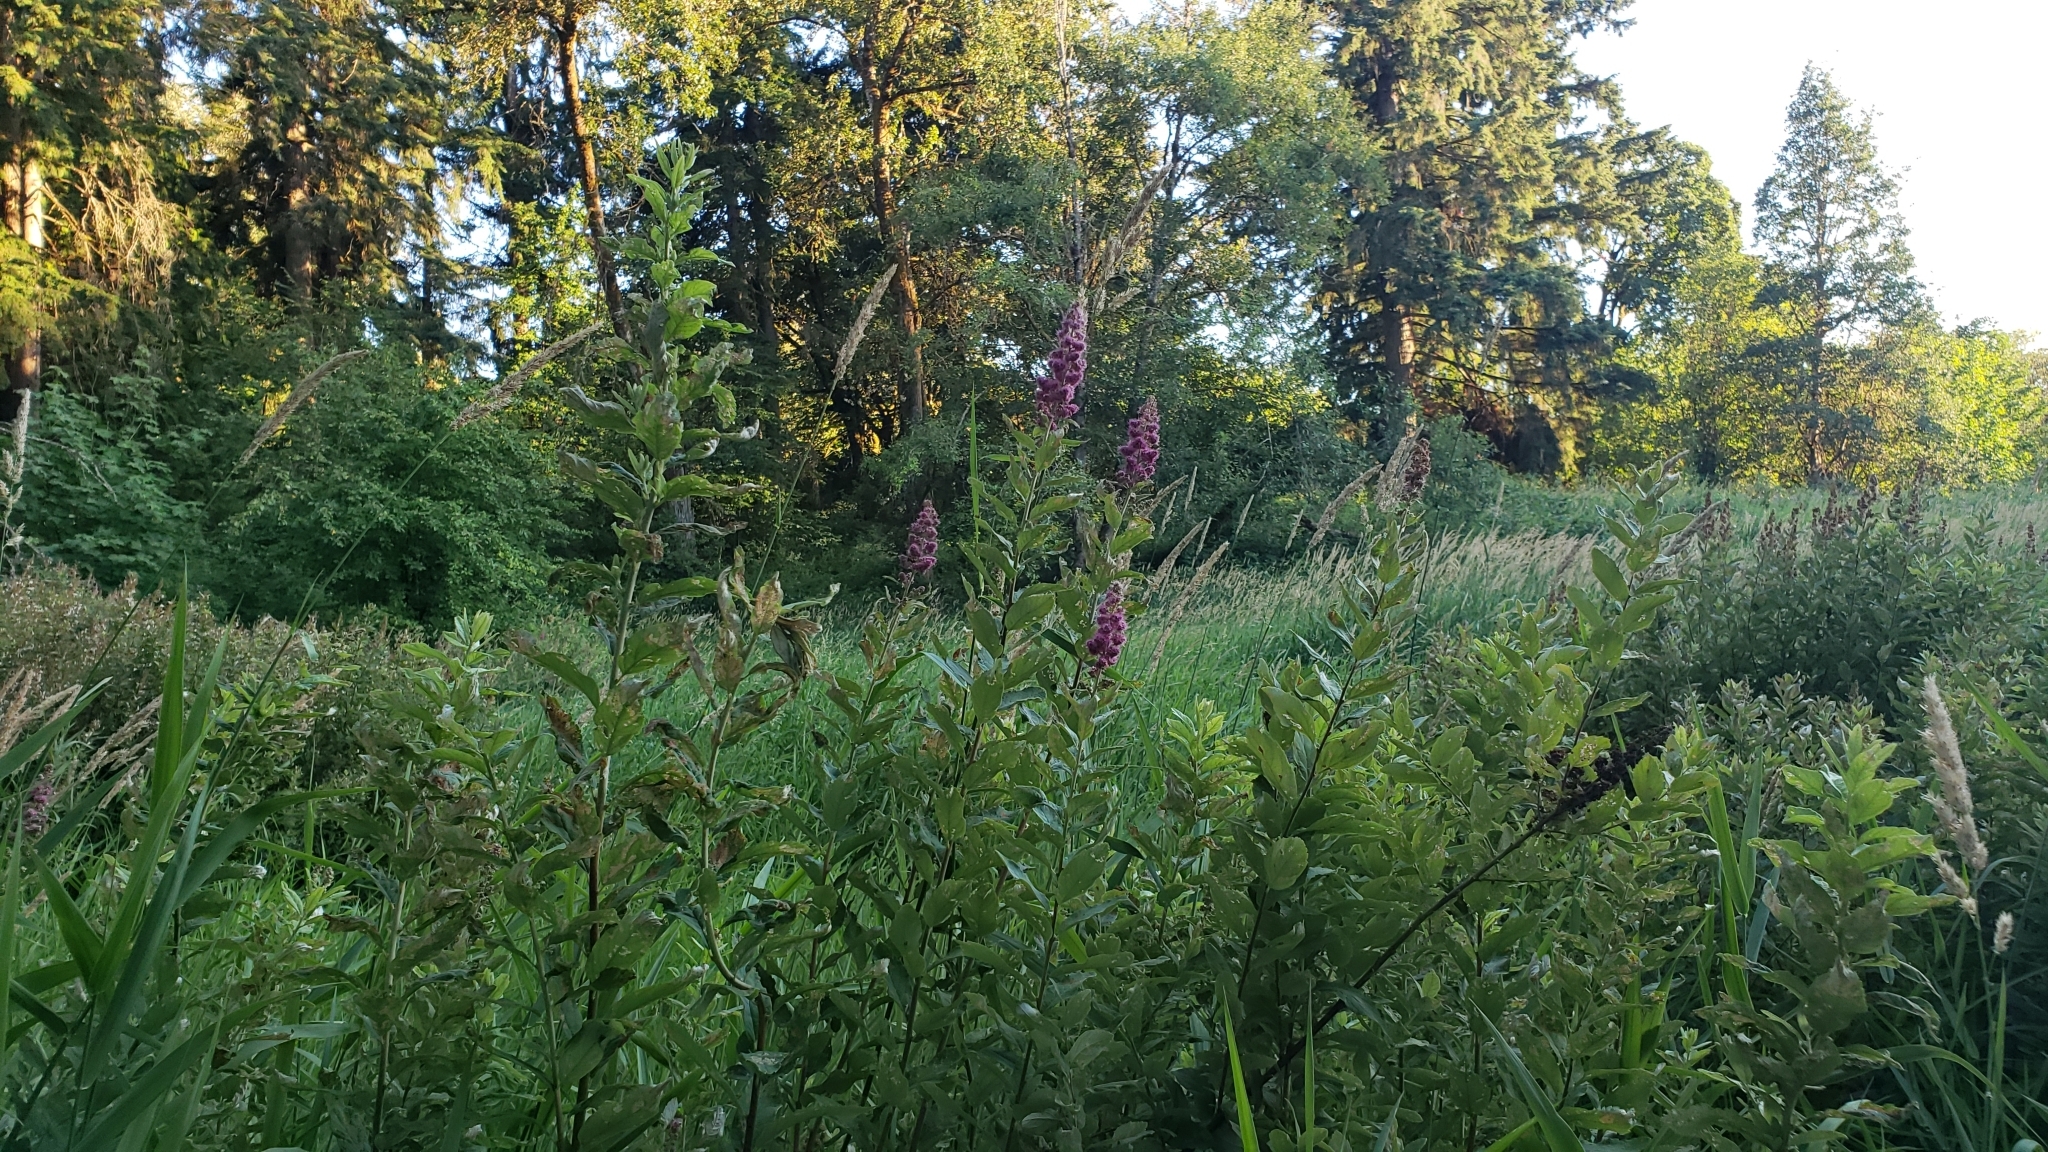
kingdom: Plantae
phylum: Tracheophyta
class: Magnoliopsida
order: Rosales
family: Rosaceae
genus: Spiraea
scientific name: Spiraea douglasii
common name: Steeplebush
